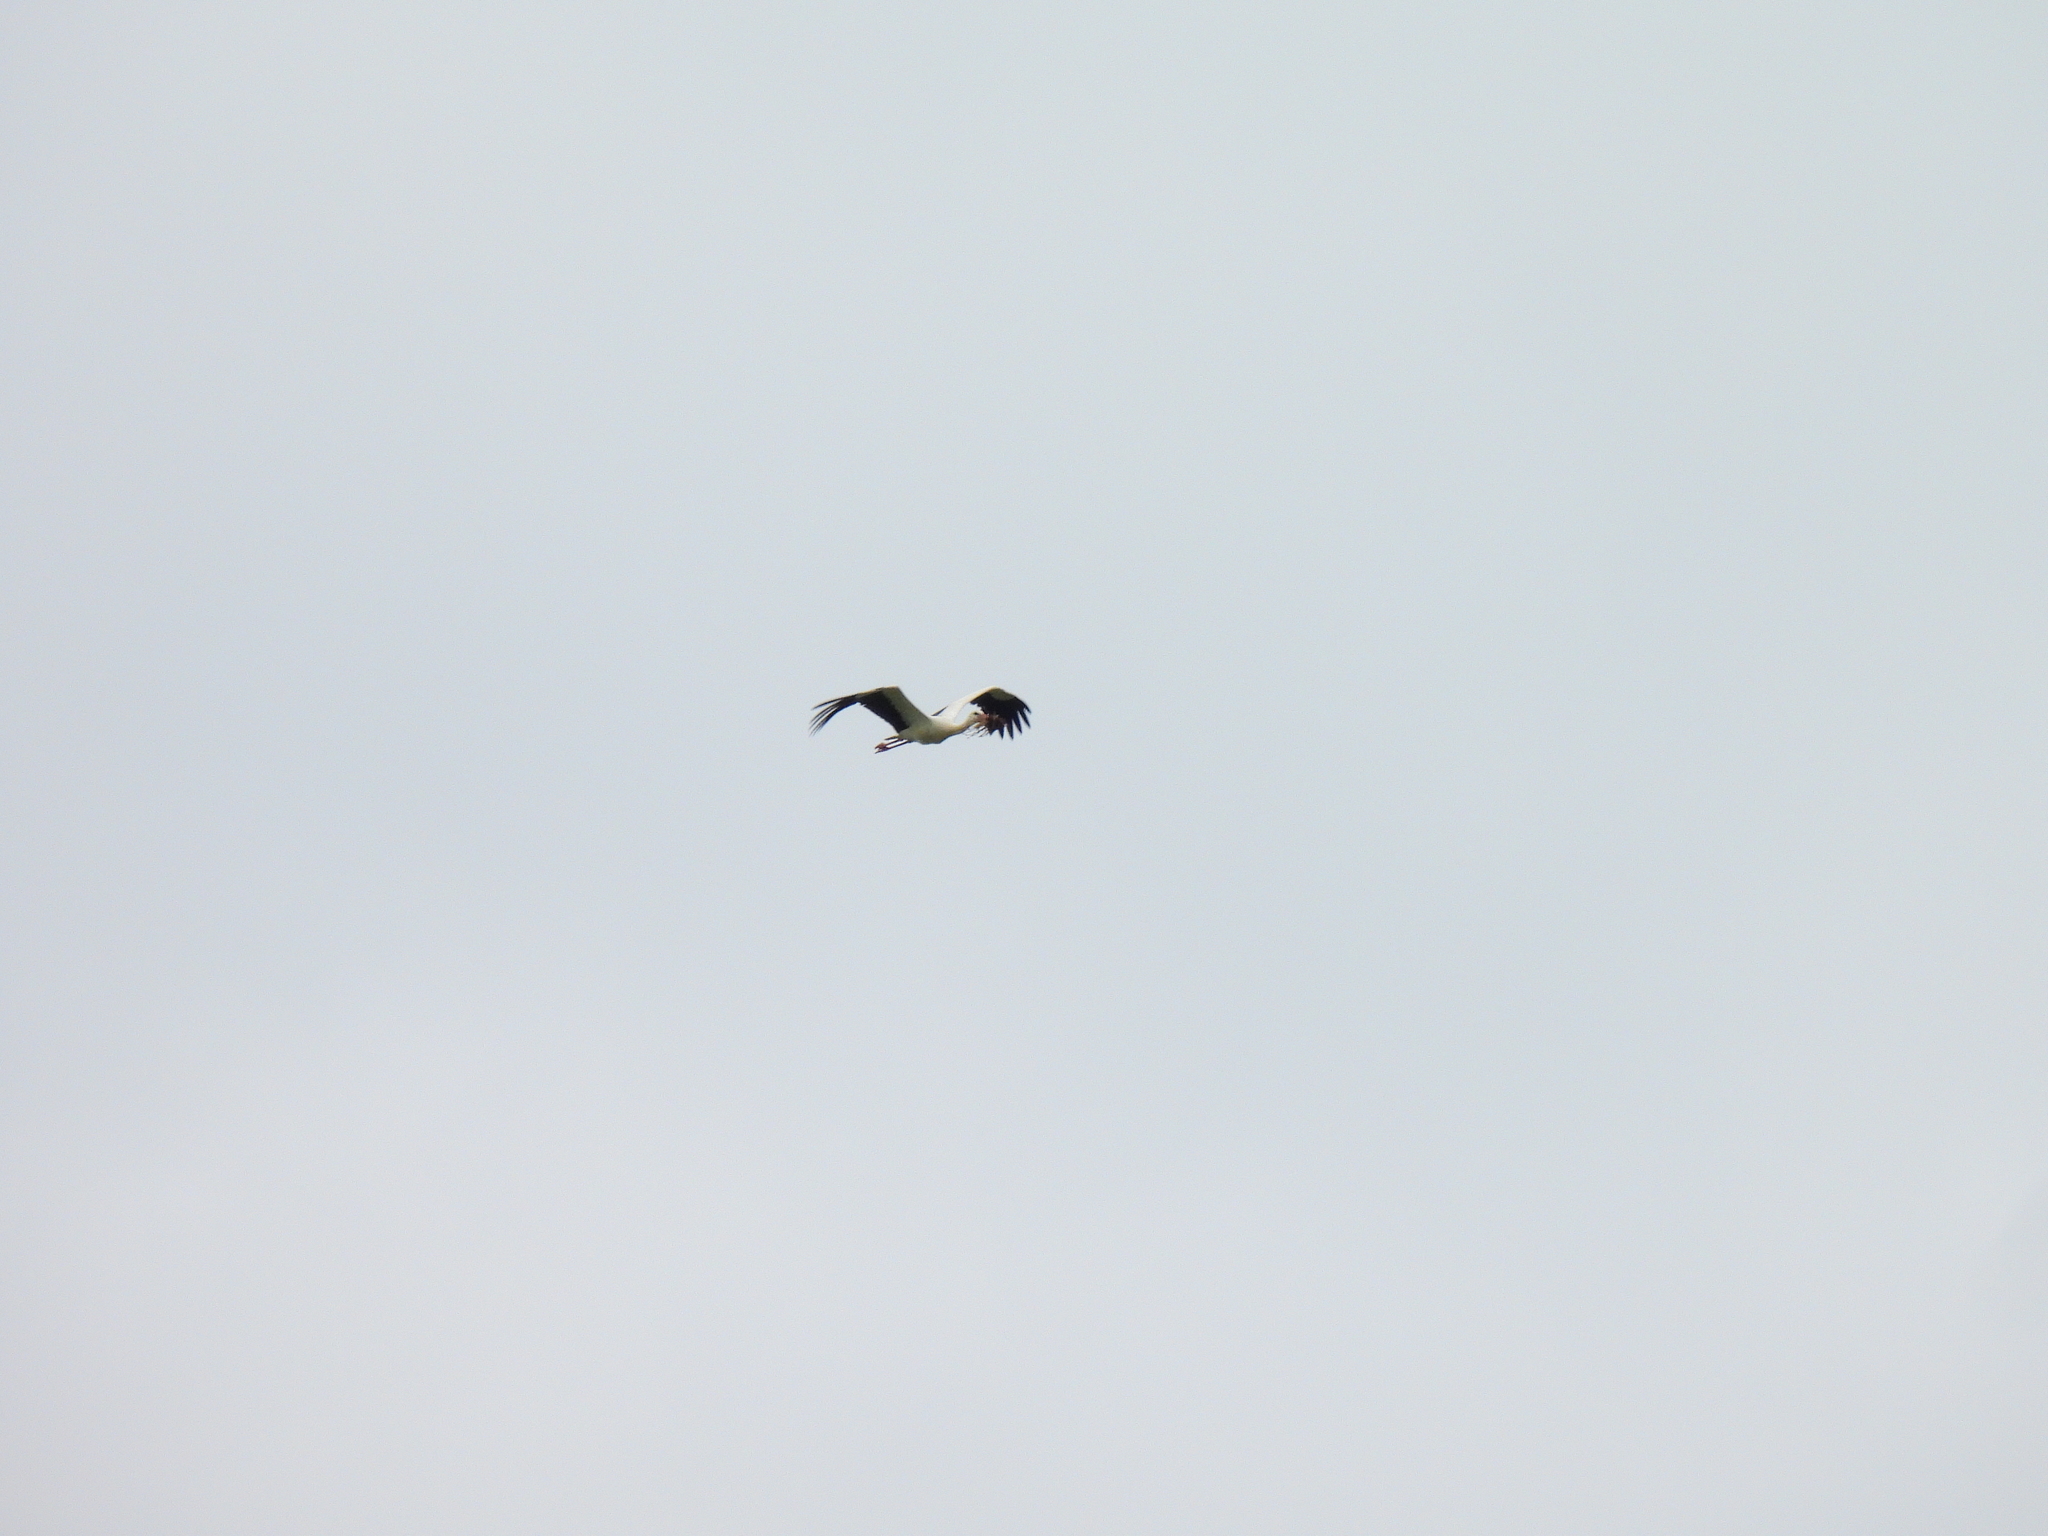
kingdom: Animalia
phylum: Chordata
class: Aves
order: Ciconiiformes
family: Ciconiidae
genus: Ciconia
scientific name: Ciconia ciconia
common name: White stork
